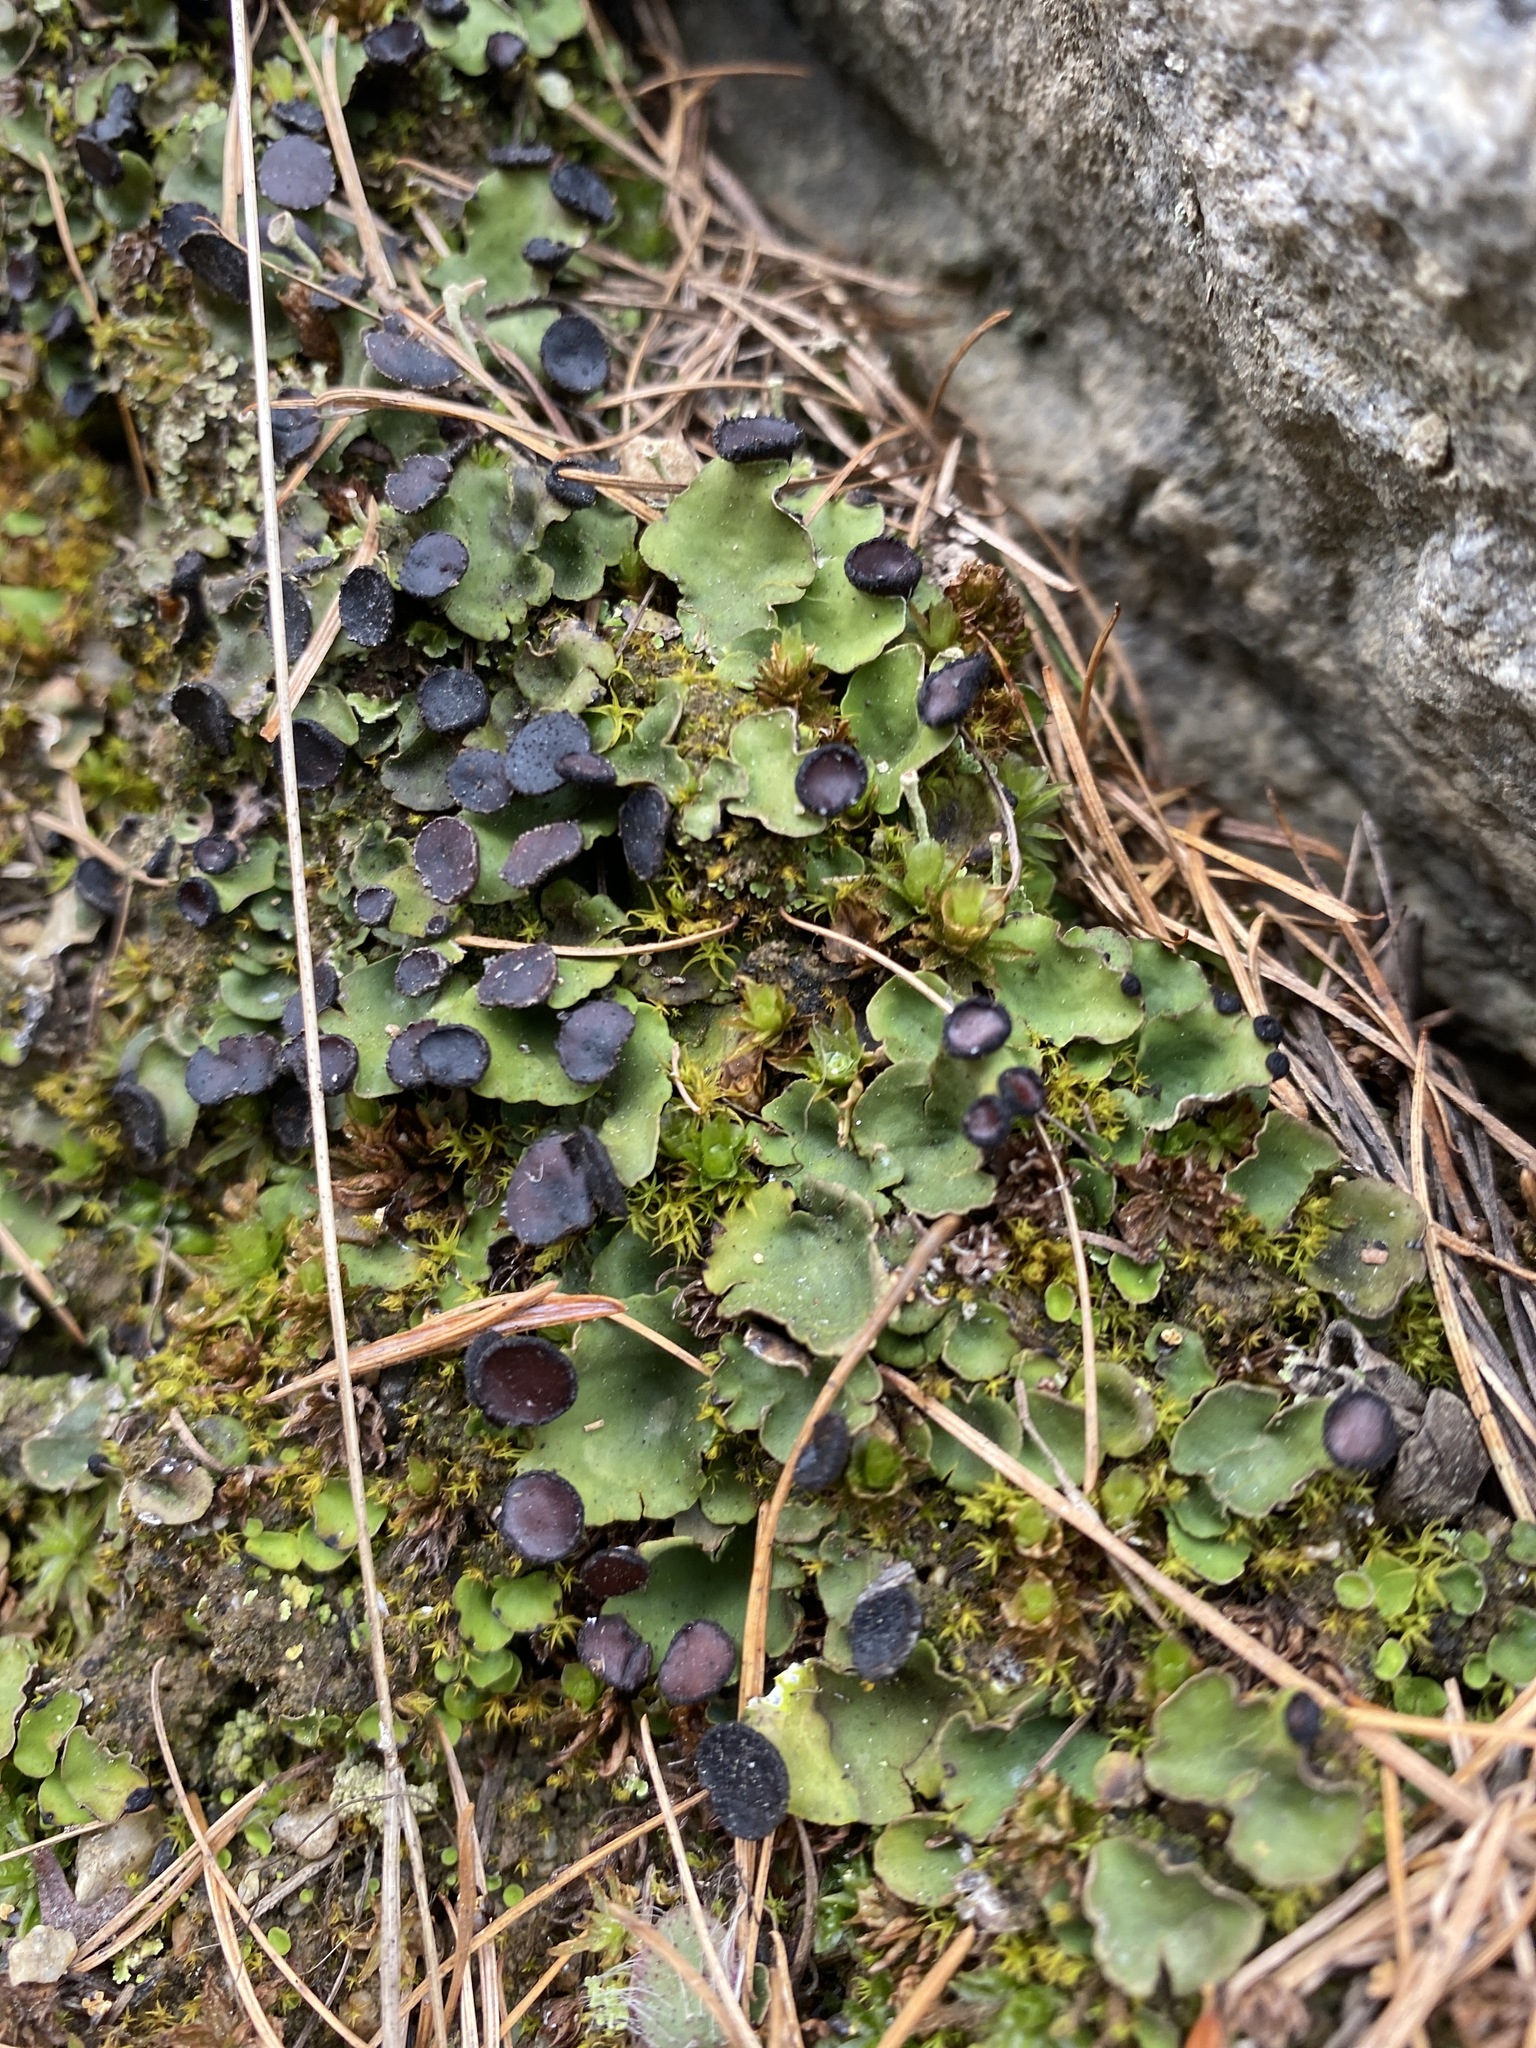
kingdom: Fungi
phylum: Ascomycota
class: Lecanoromycetes
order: Peltigerales
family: Peltigeraceae
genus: Peltigera
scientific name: Peltigera venosa
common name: Pixie gowns lichen
